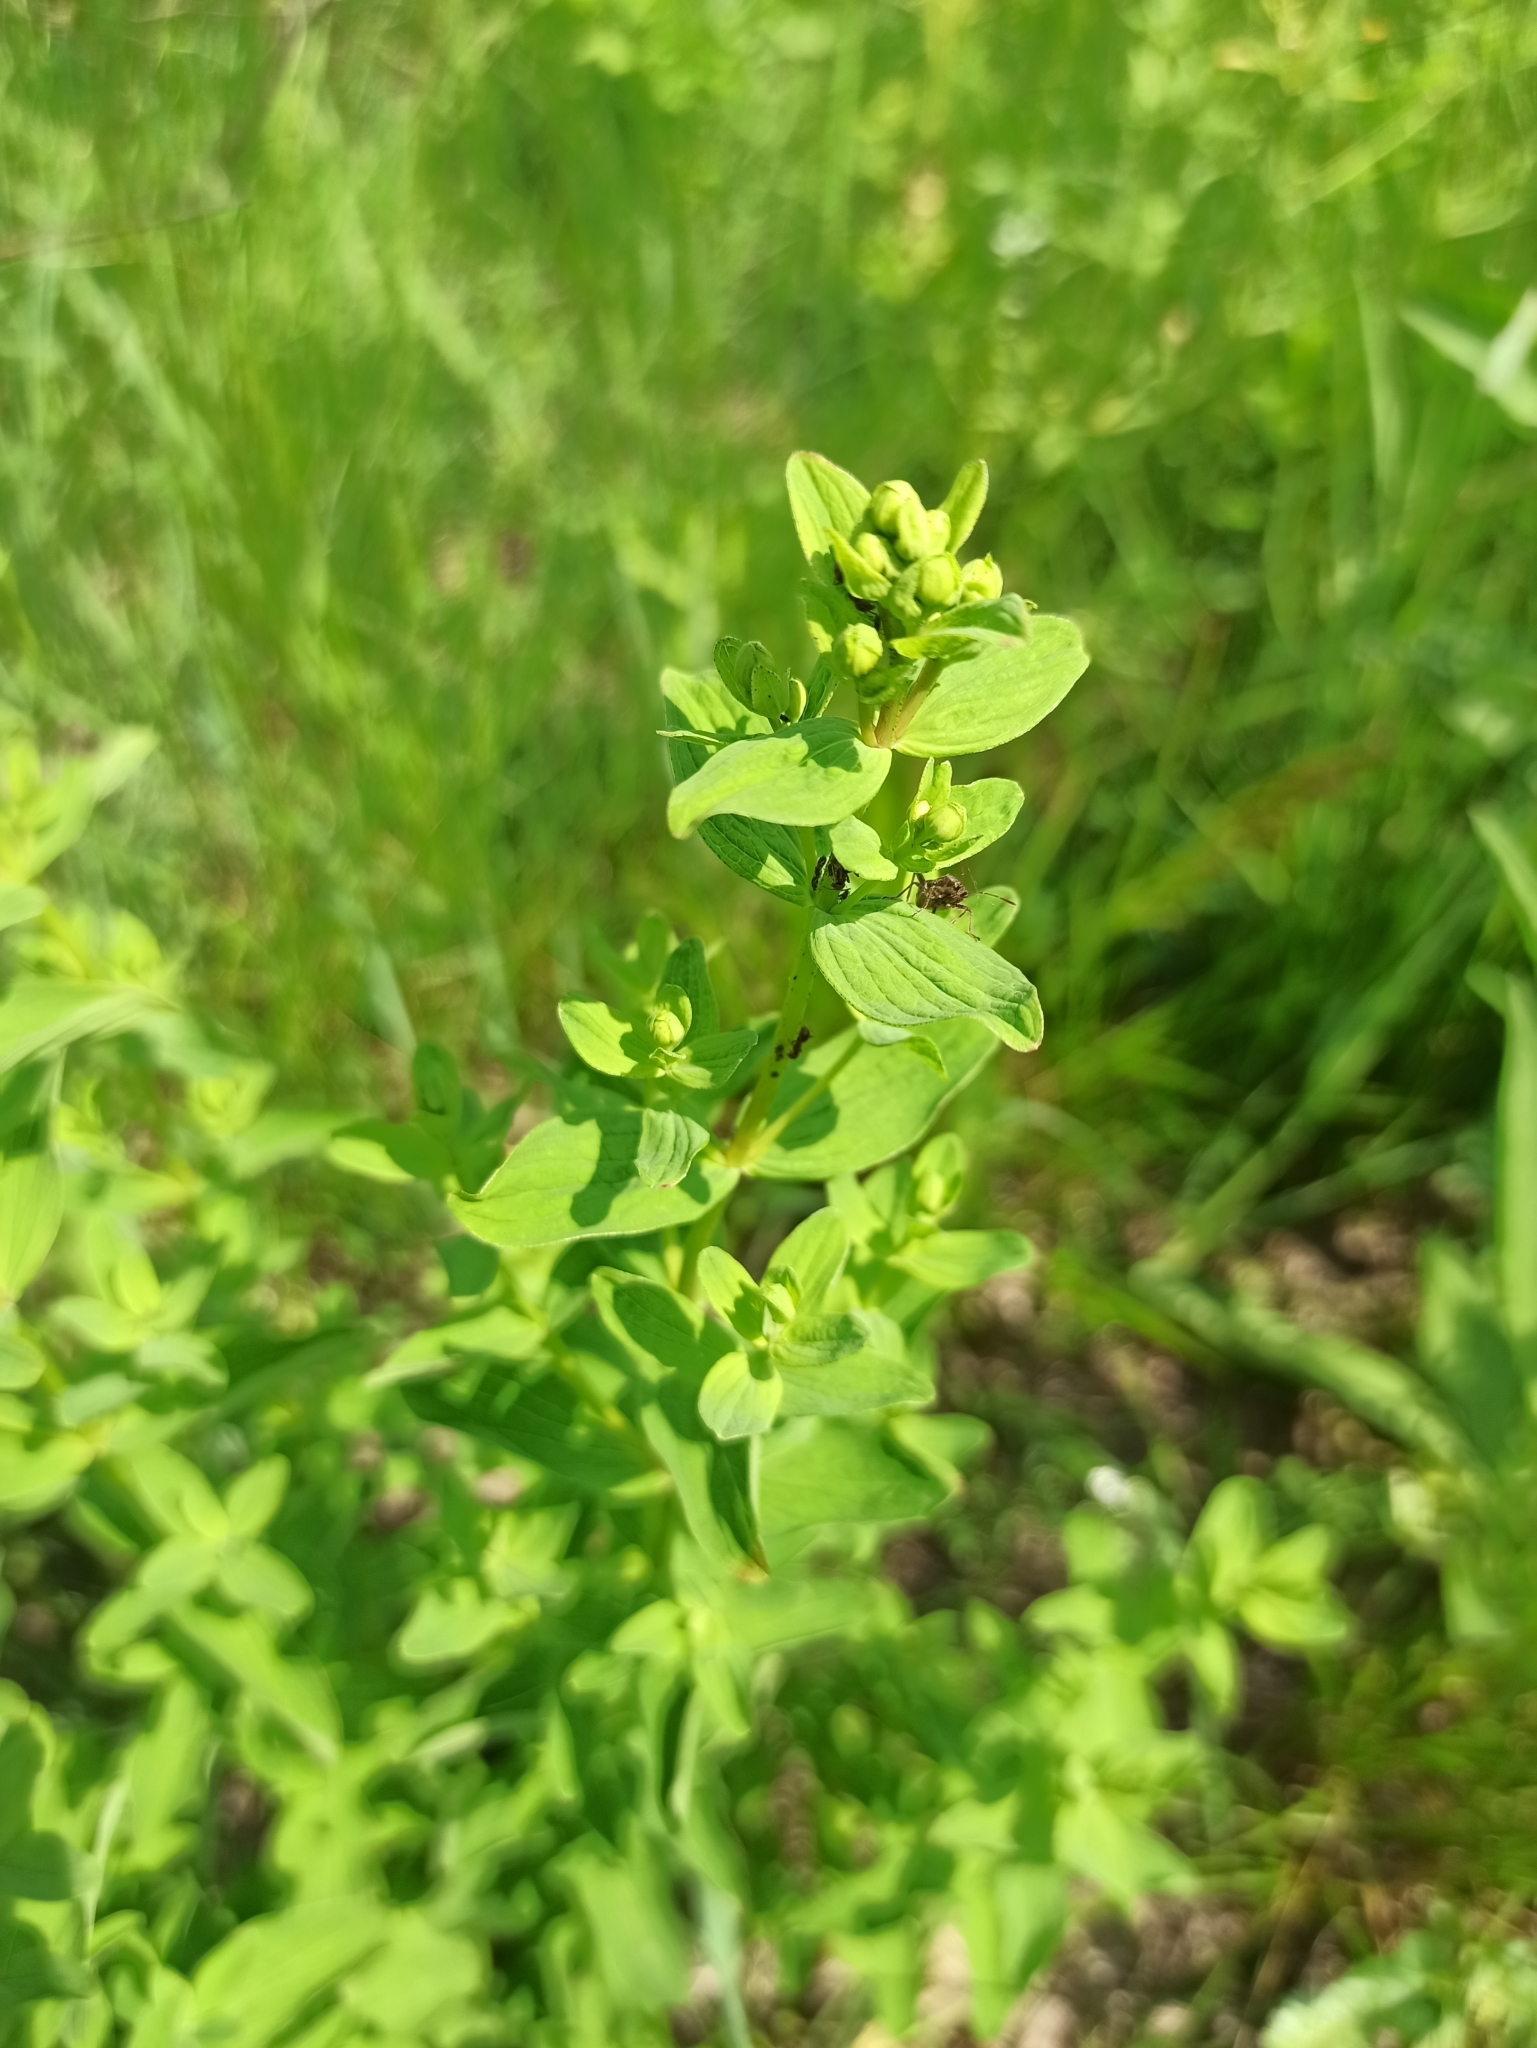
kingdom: Plantae
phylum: Tracheophyta
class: Magnoliopsida
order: Malpighiales
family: Hypericaceae
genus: Hypericum
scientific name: Hypericum maculatum
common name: Imperforate st. john's-wort
